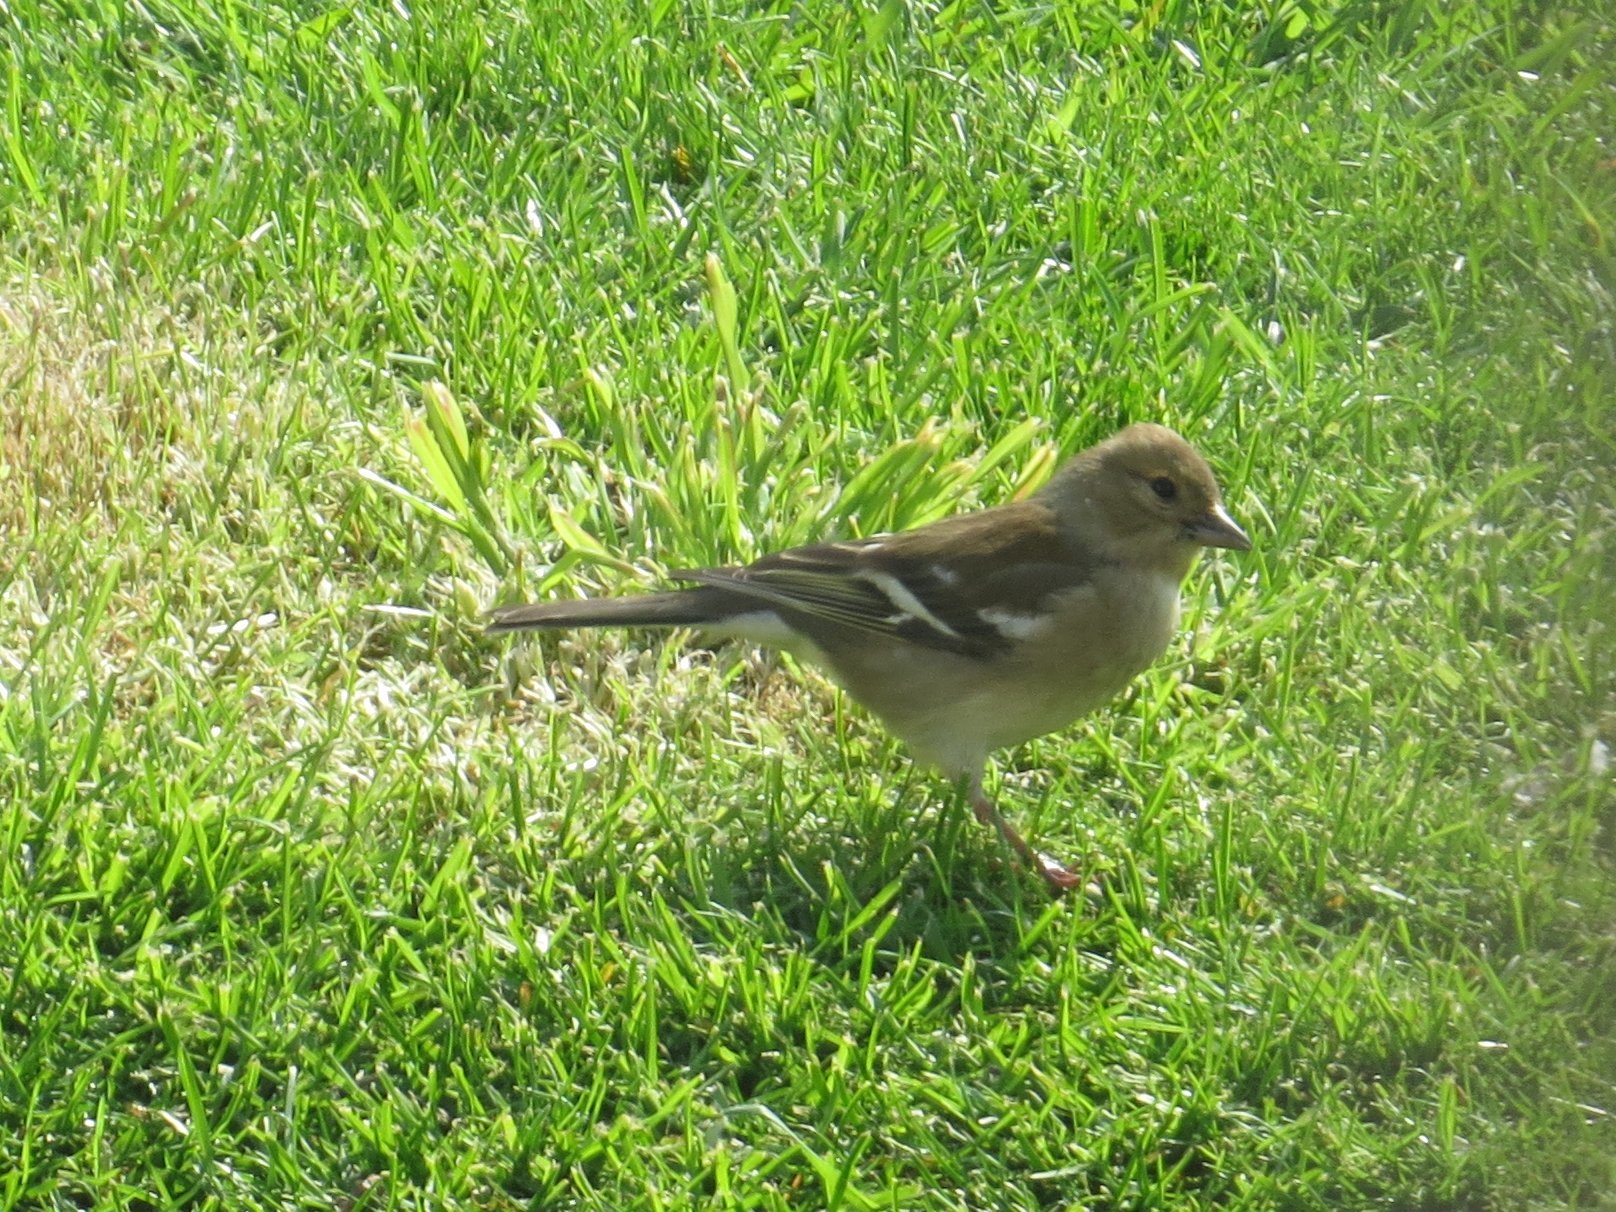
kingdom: Animalia
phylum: Chordata
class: Aves
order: Passeriformes
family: Fringillidae
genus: Fringilla
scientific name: Fringilla coelebs
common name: Common chaffinch
